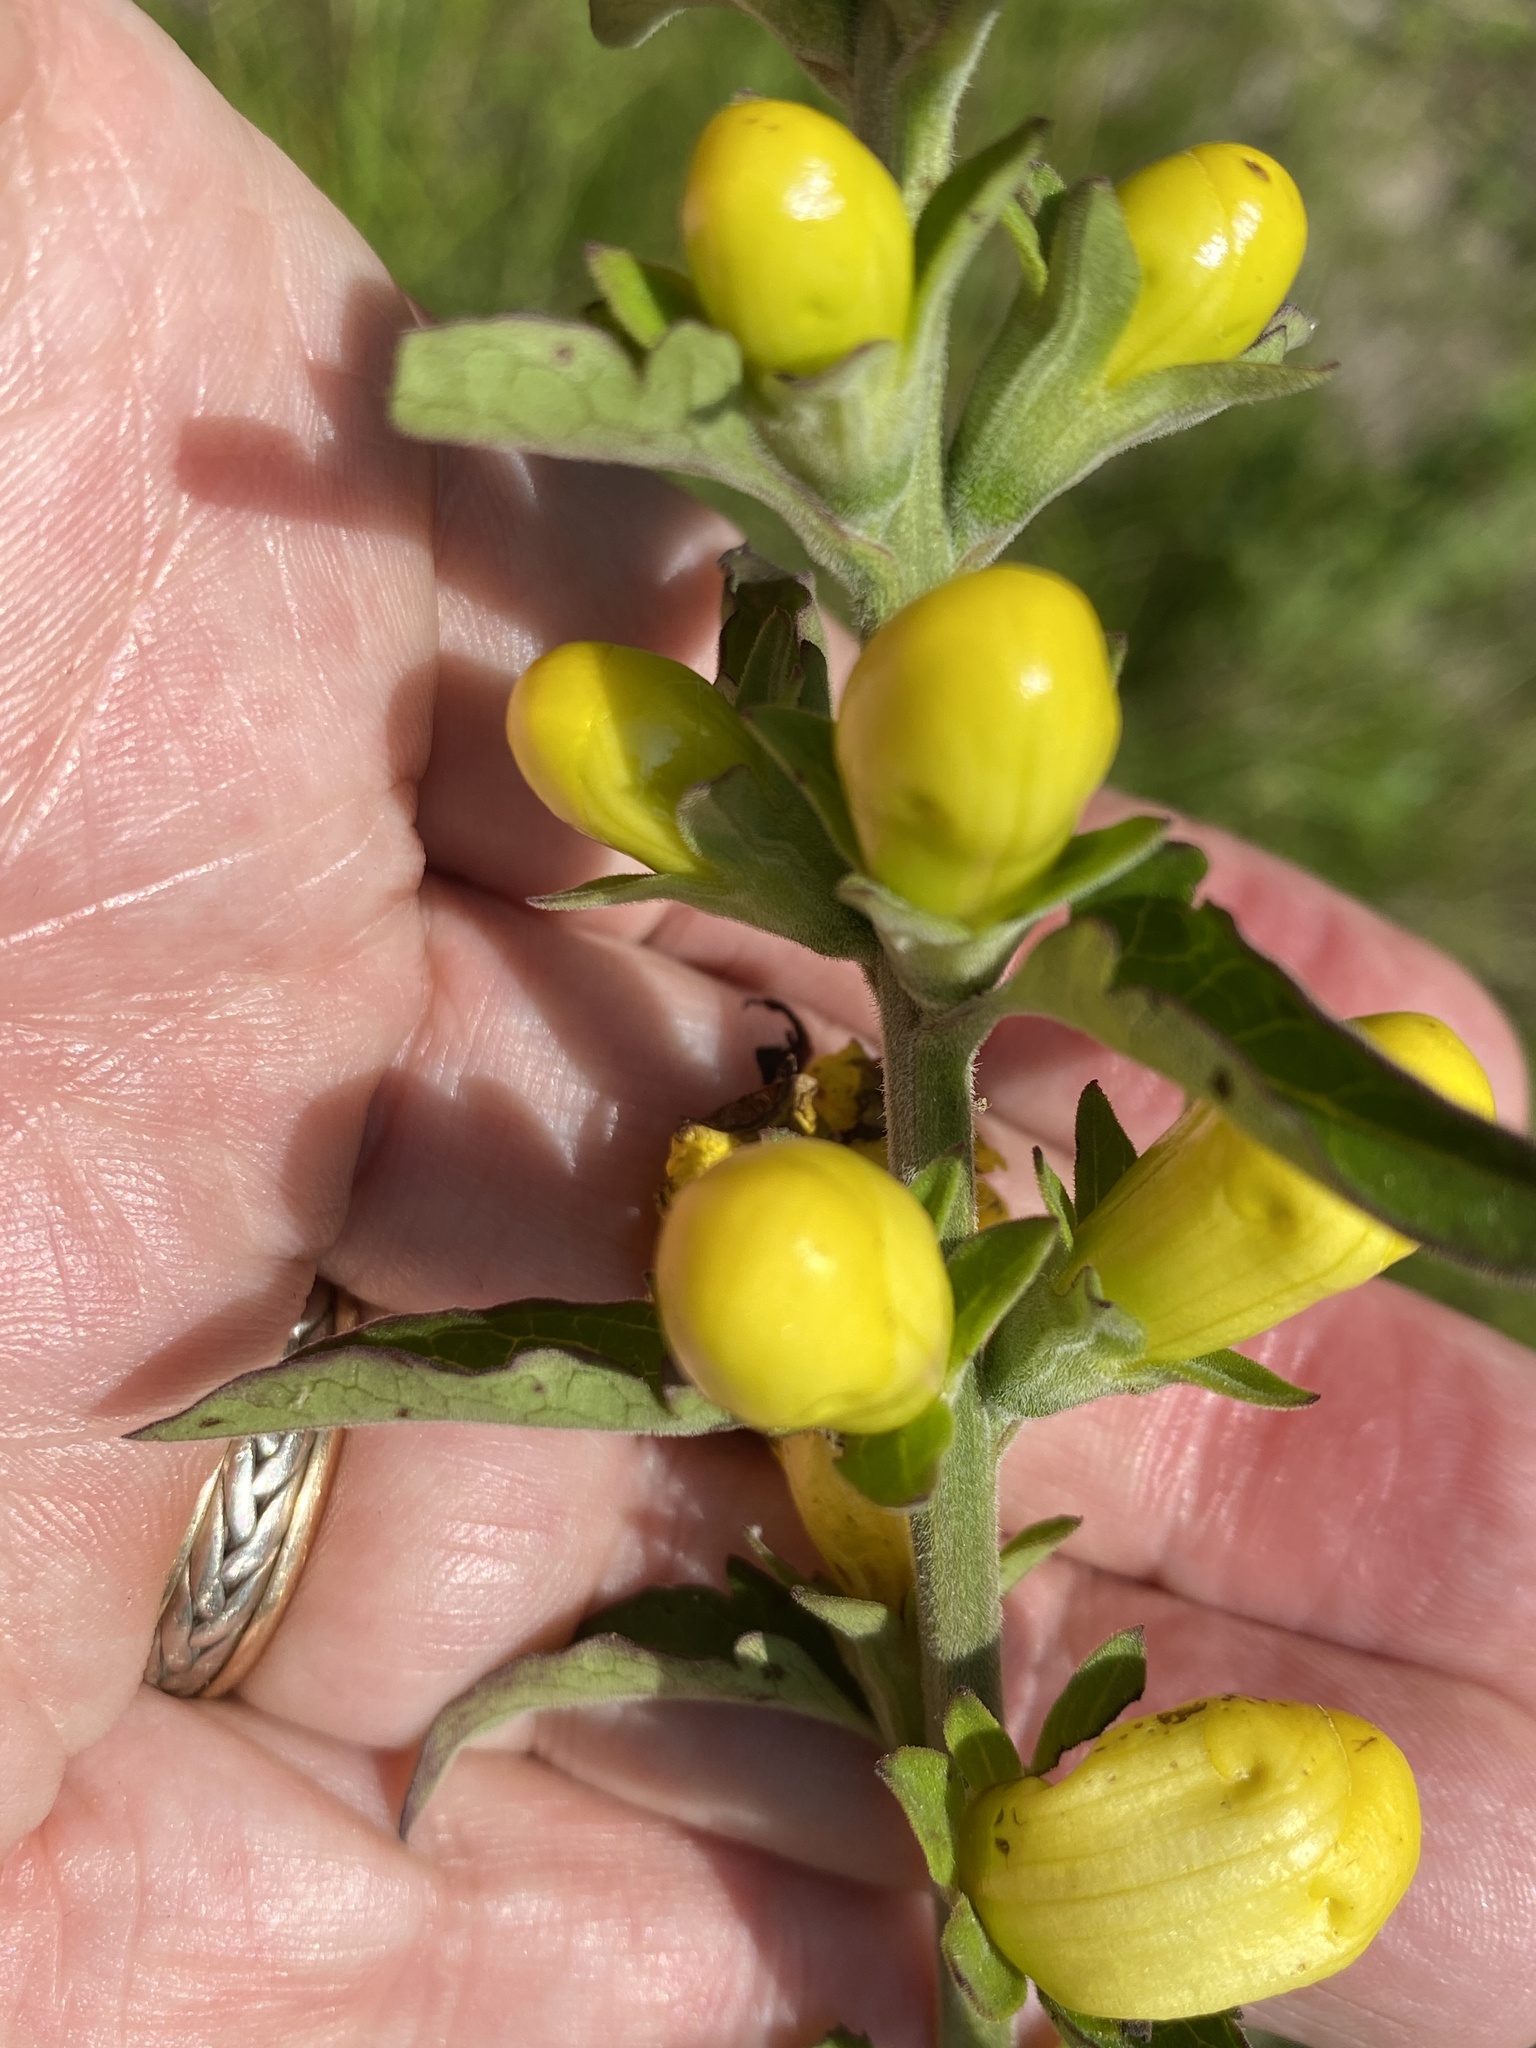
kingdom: Plantae
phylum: Tracheophyta
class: Magnoliopsida
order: Lamiales
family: Orobanchaceae
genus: Aureolaria
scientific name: Aureolaria virginica
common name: Downy false foxglove
